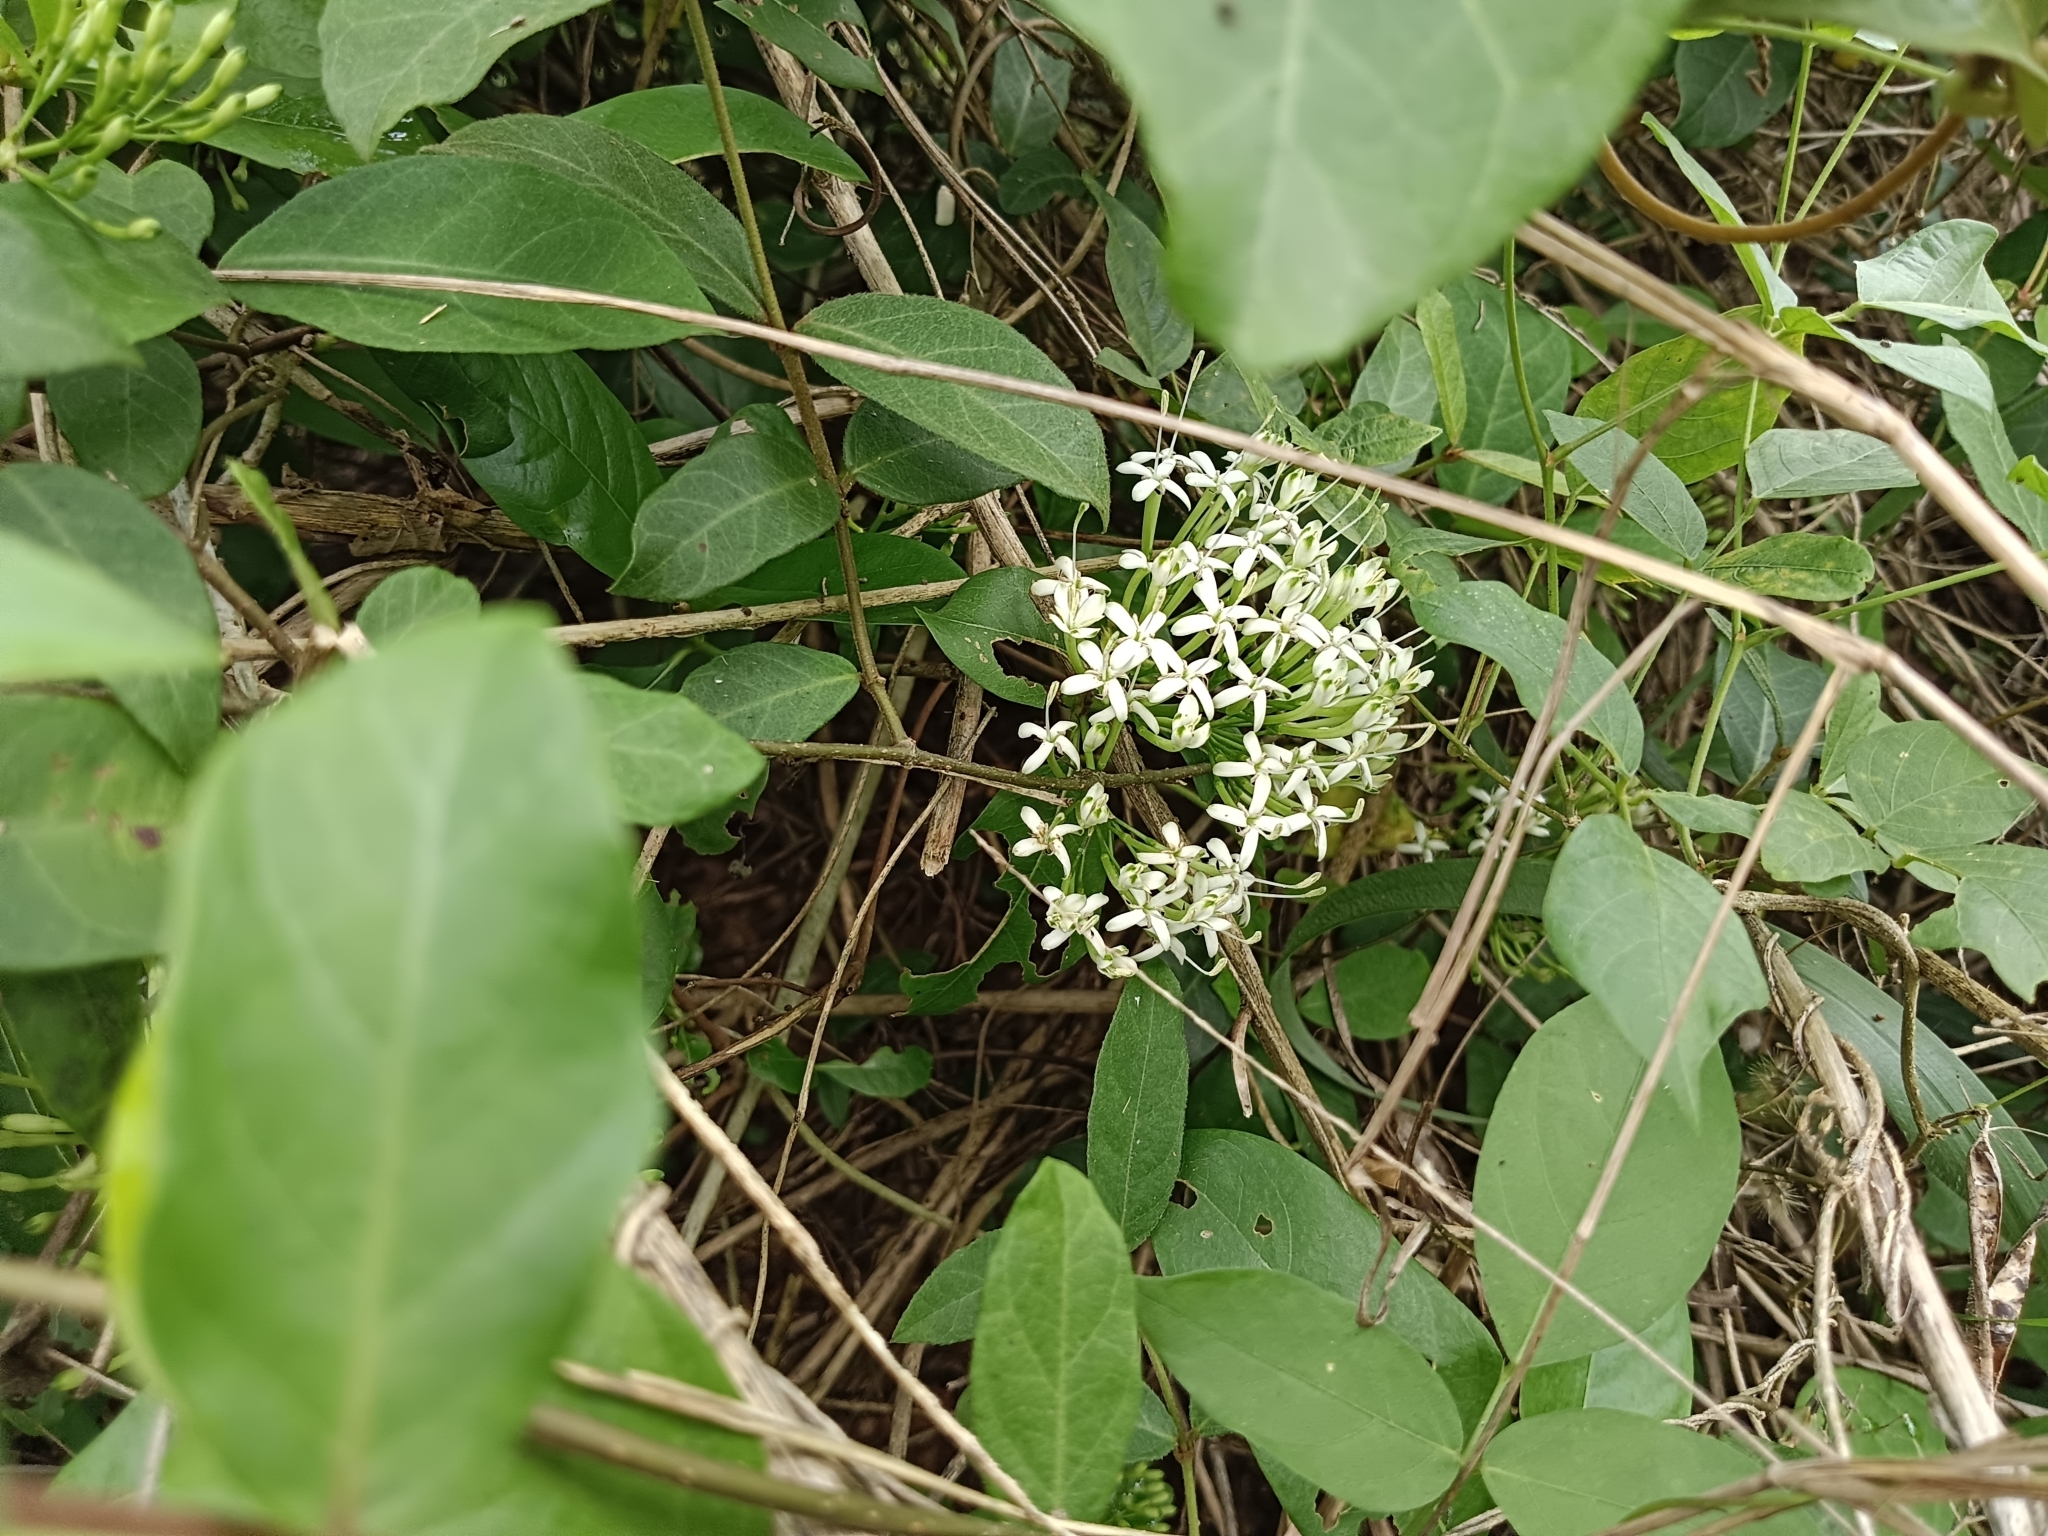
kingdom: Plantae
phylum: Tracheophyta
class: Magnoliopsida
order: Gentianales
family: Rubiaceae
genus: Pavetta
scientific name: Pavetta indica
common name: Indian pavetta
